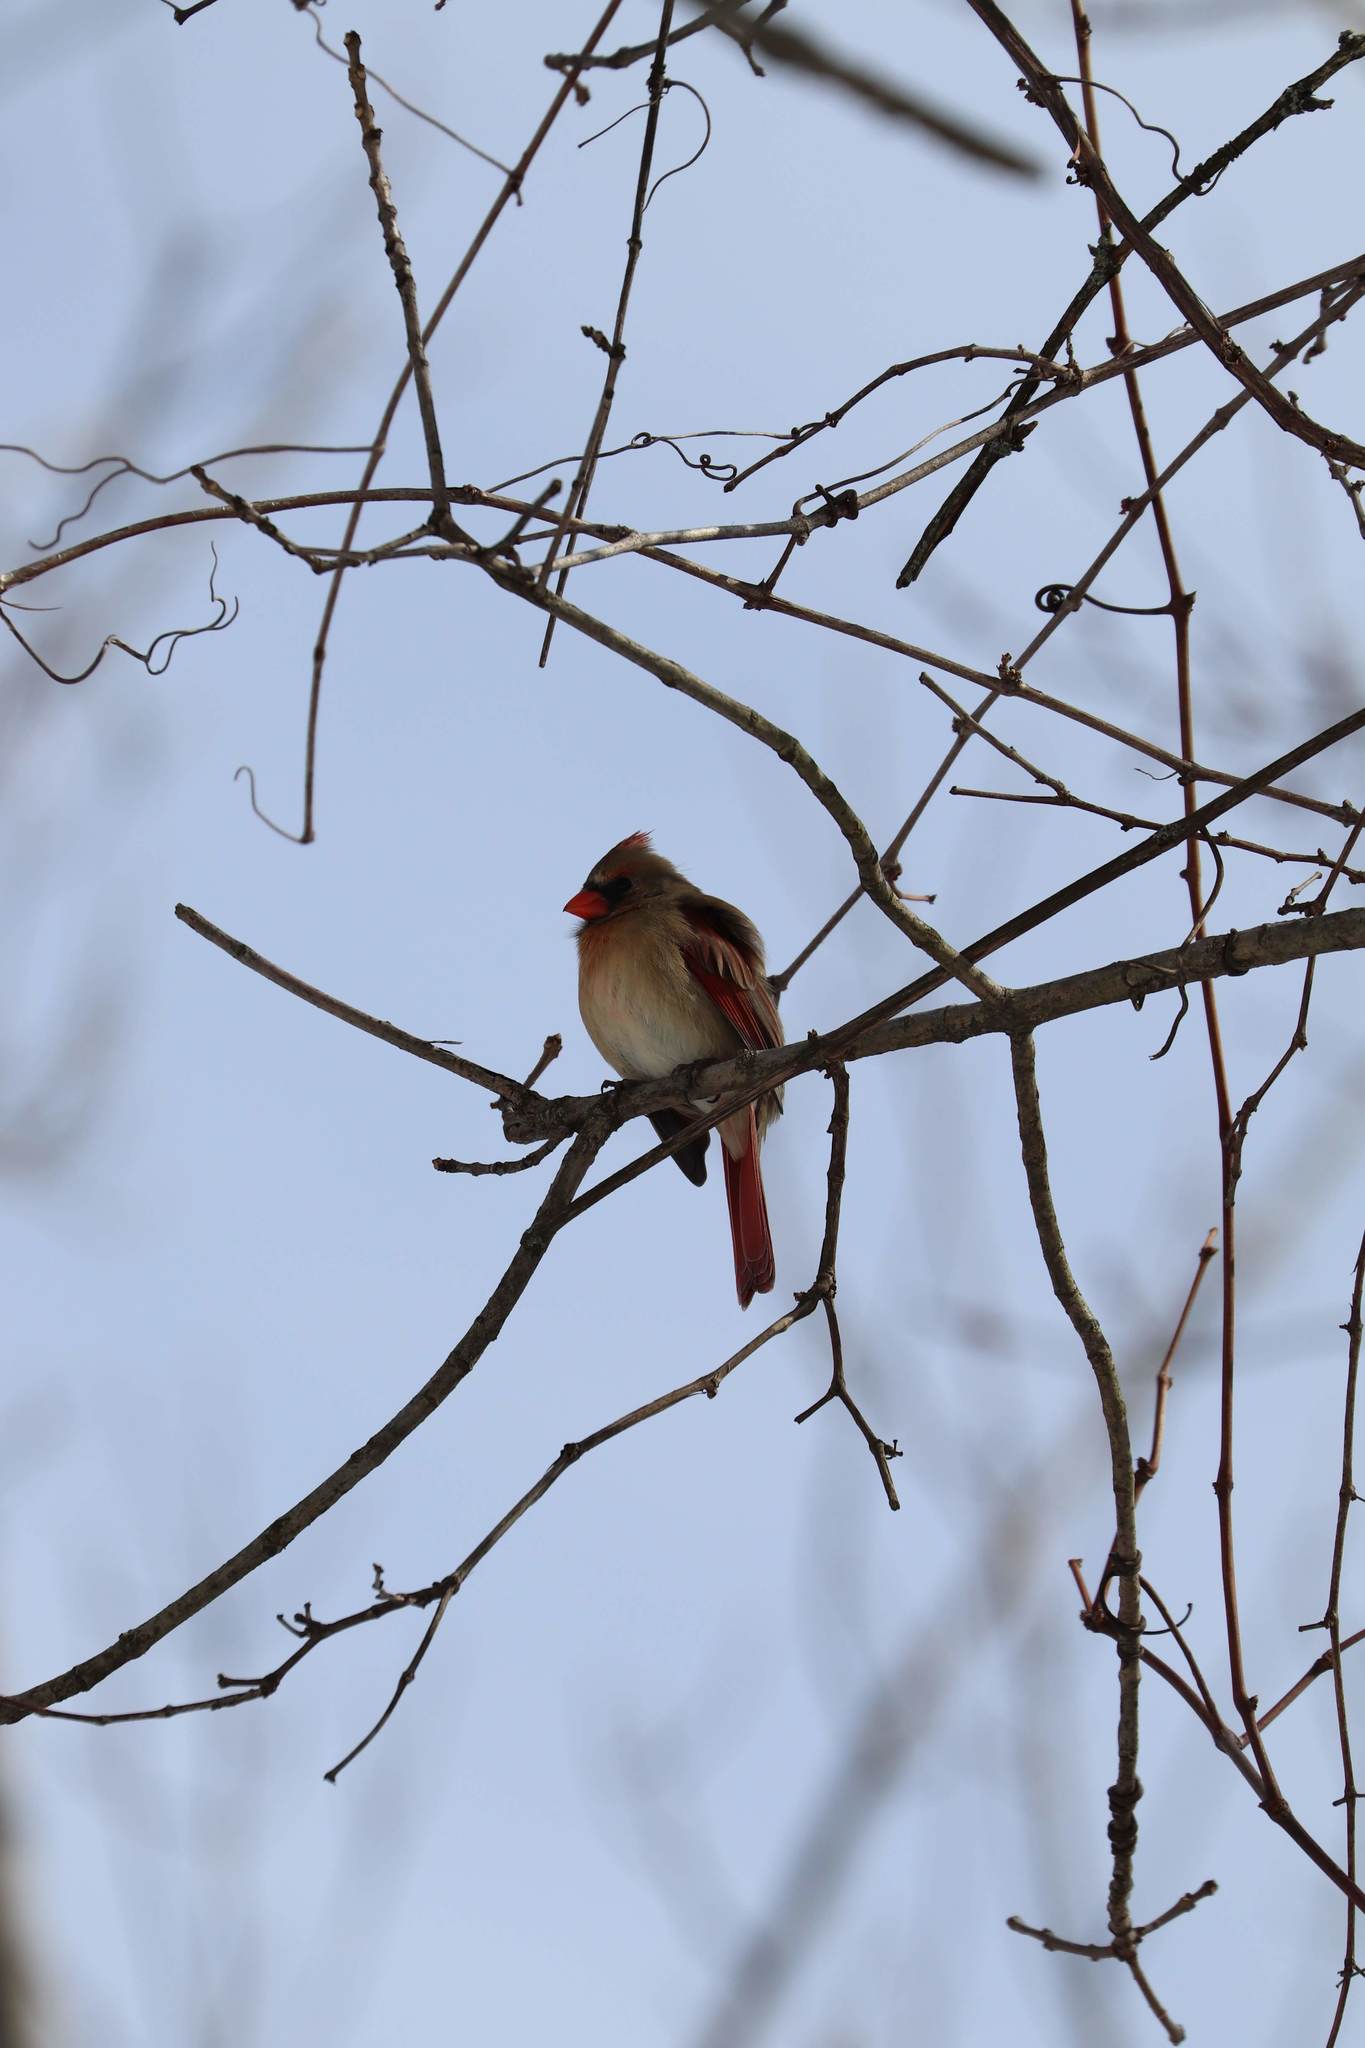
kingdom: Animalia
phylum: Chordata
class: Aves
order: Passeriformes
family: Cardinalidae
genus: Cardinalis
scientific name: Cardinalis cardinalis
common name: Northern cardinal
